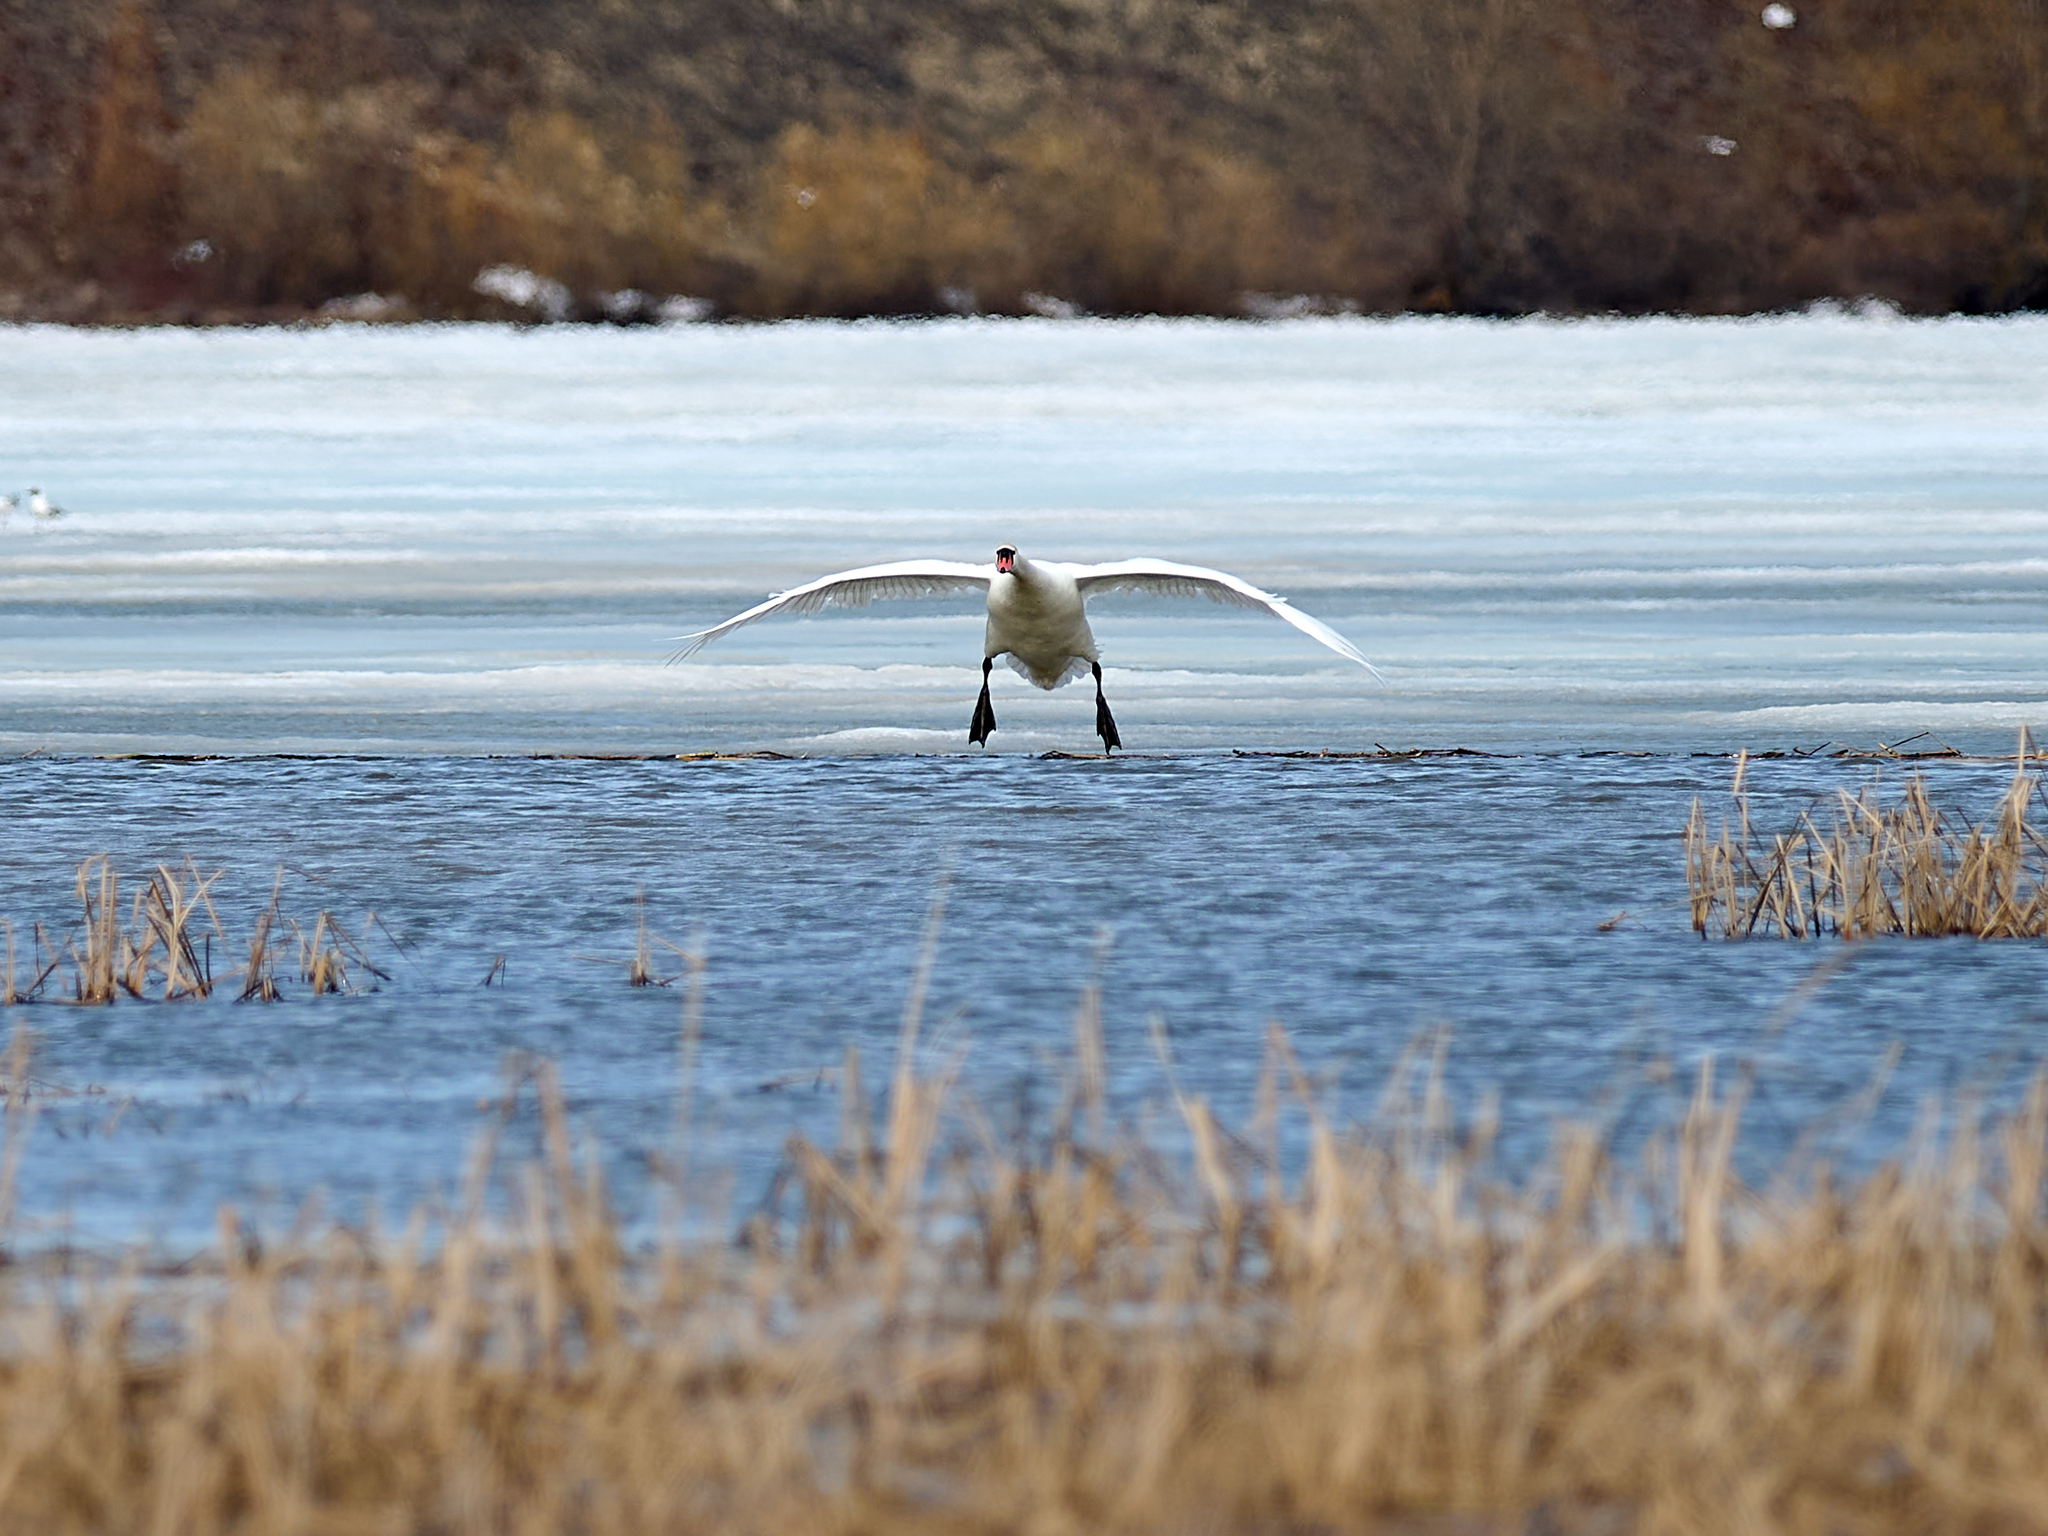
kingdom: Animalia
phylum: Chordata
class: Aves
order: Anseriformes
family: Anatidae
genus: Cygnus
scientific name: Cygnus olor
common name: Mute swan
